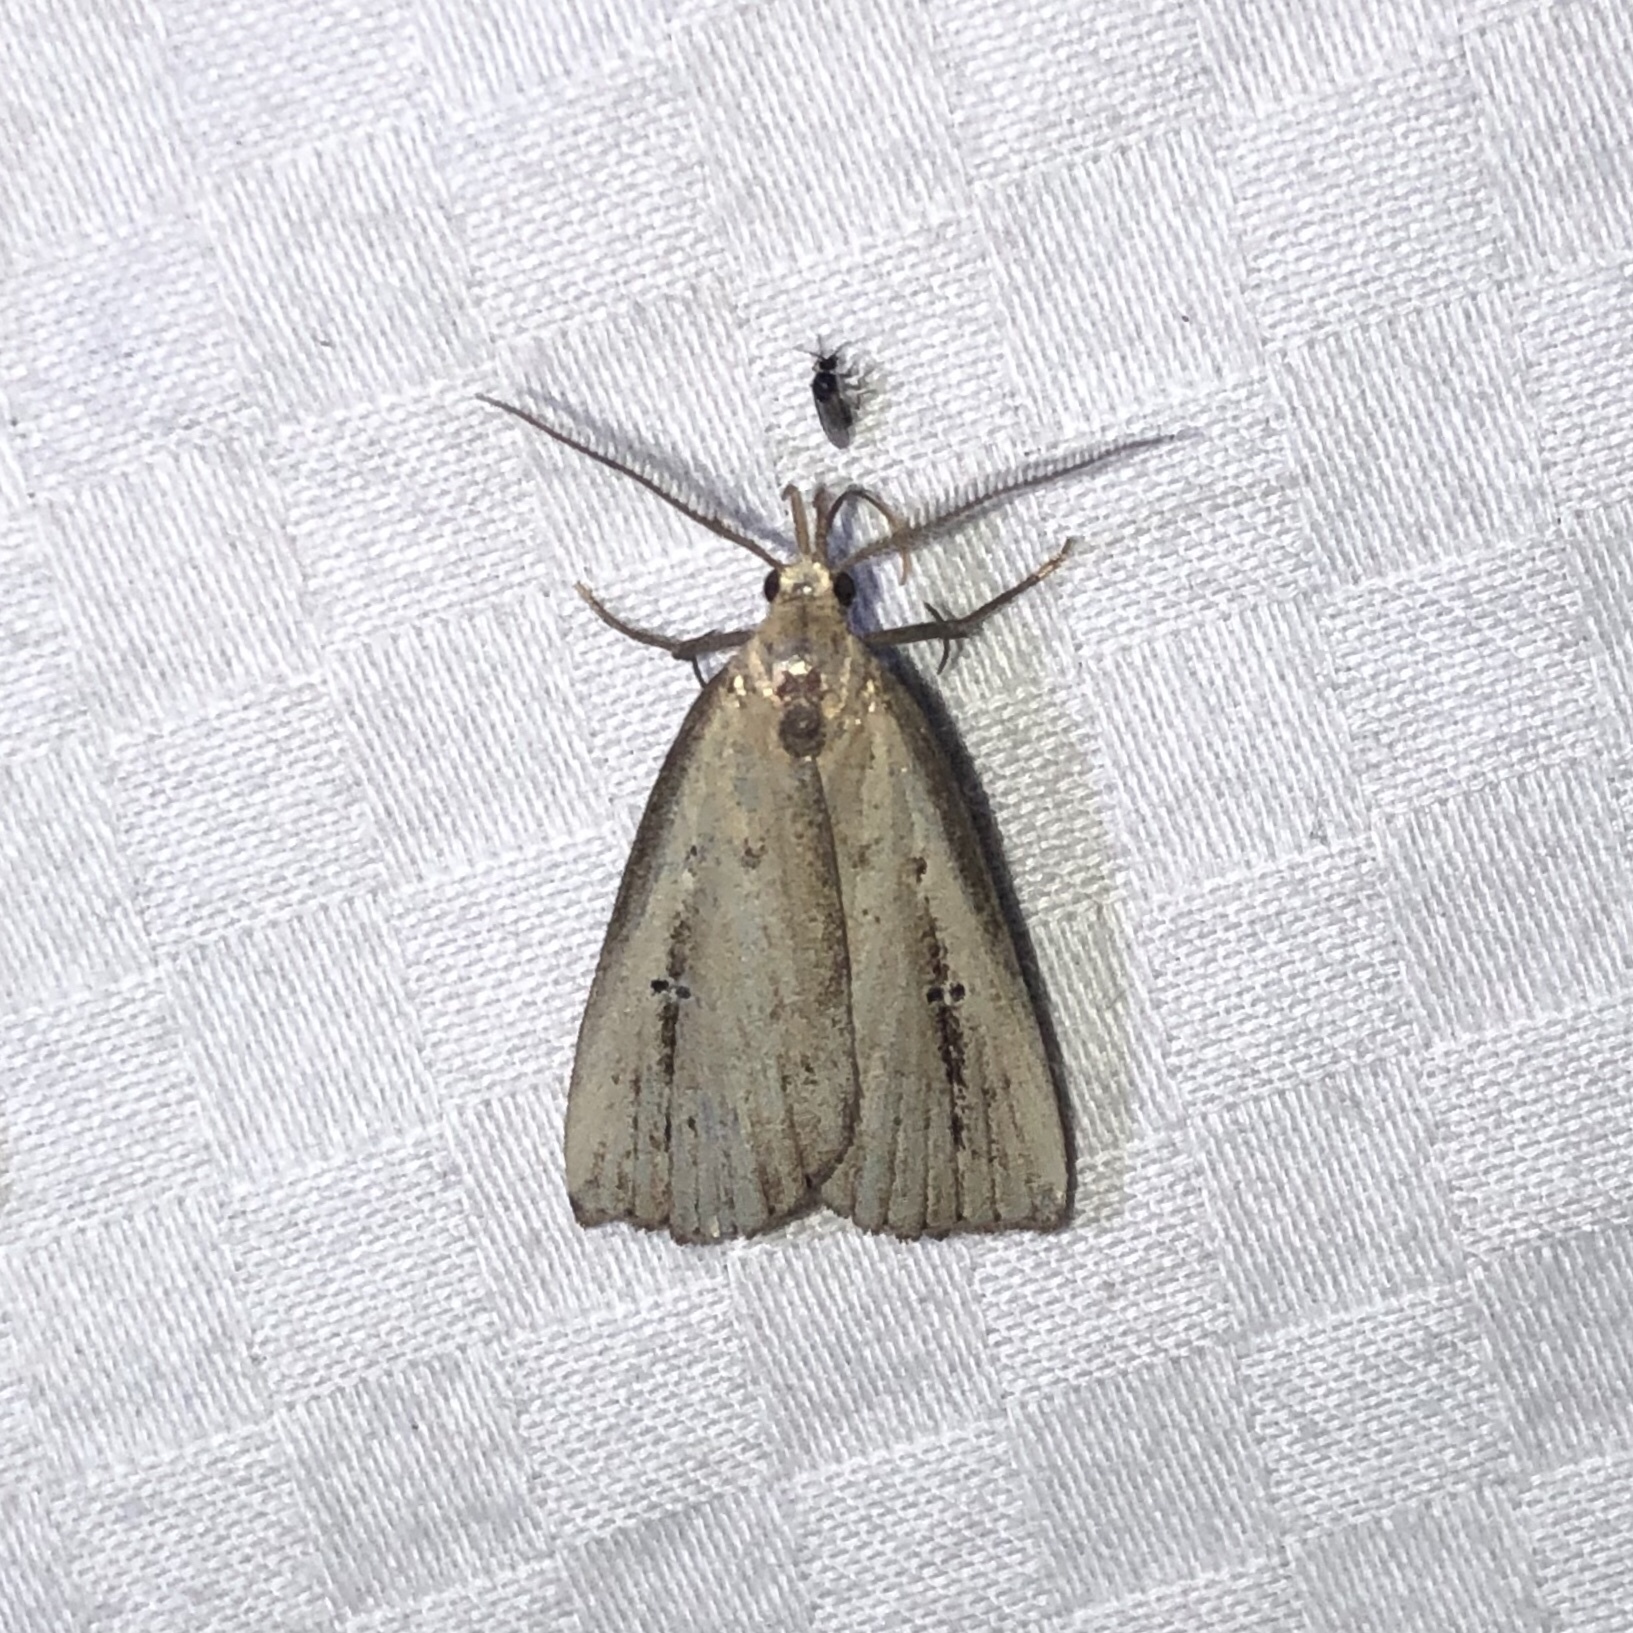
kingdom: Animalia
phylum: Arthropoda
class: Insecta
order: Lepidoptera
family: Erebidae
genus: Macrochilo
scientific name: Macrochilo orciferalis
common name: Bronzy owlet
